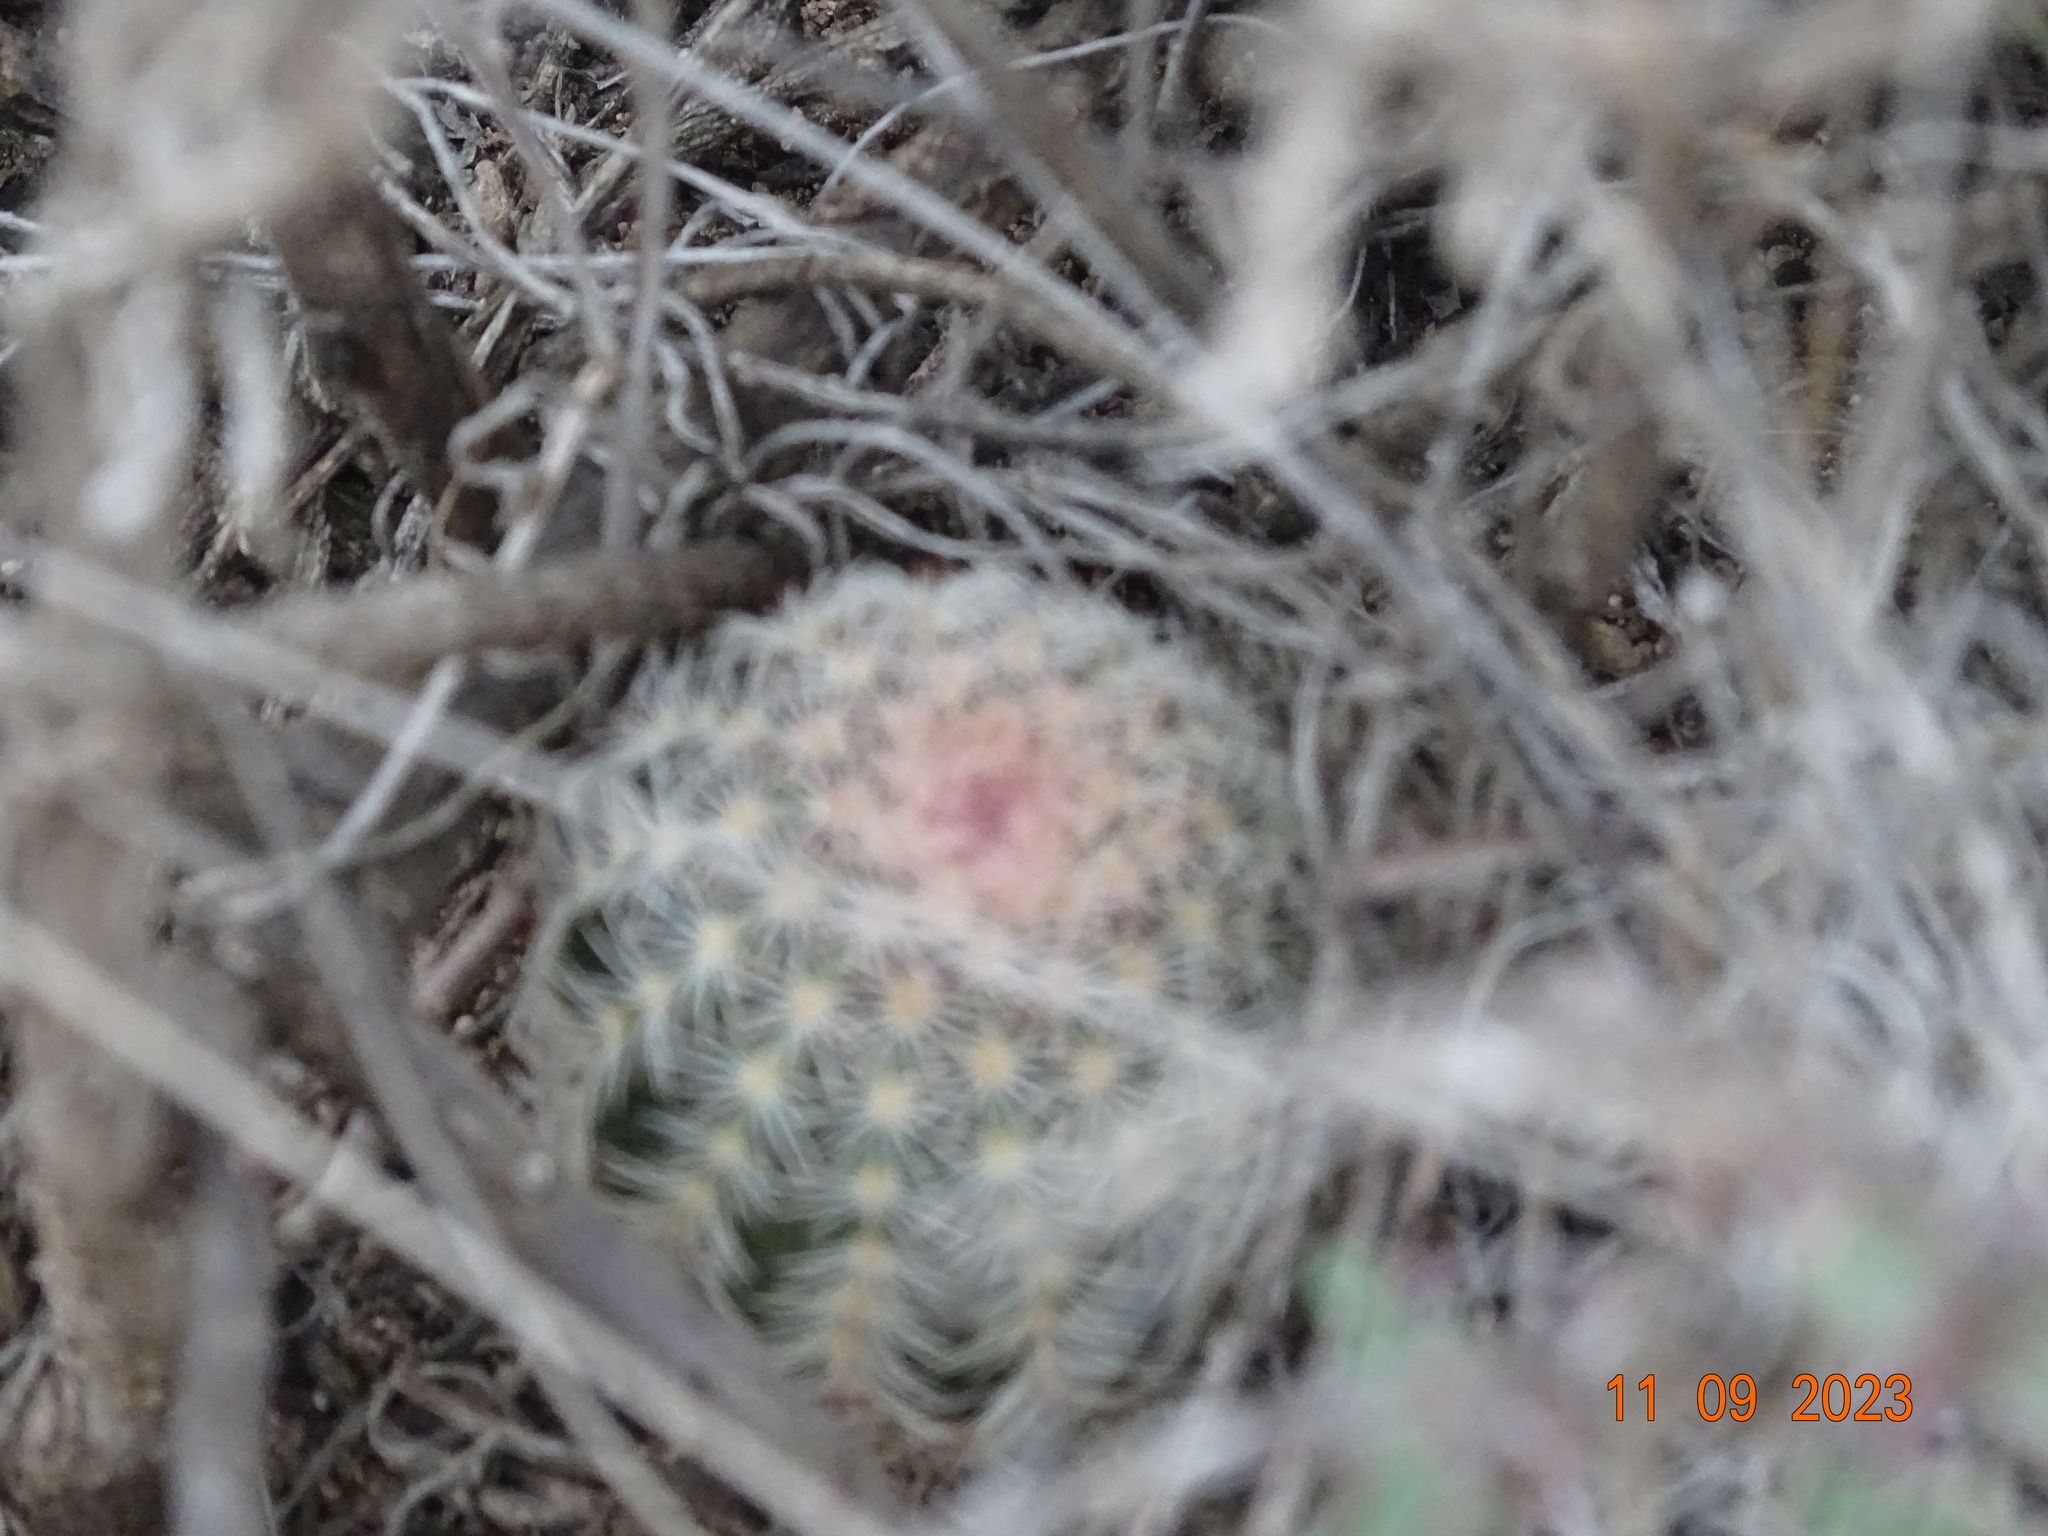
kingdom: Plantae
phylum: Tracheophyta
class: Magnoliopsida
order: Caryophyllales
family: Cactaceae
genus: Echinocereus
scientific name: Echinocereus pectinatus
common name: Rainbow cactus
